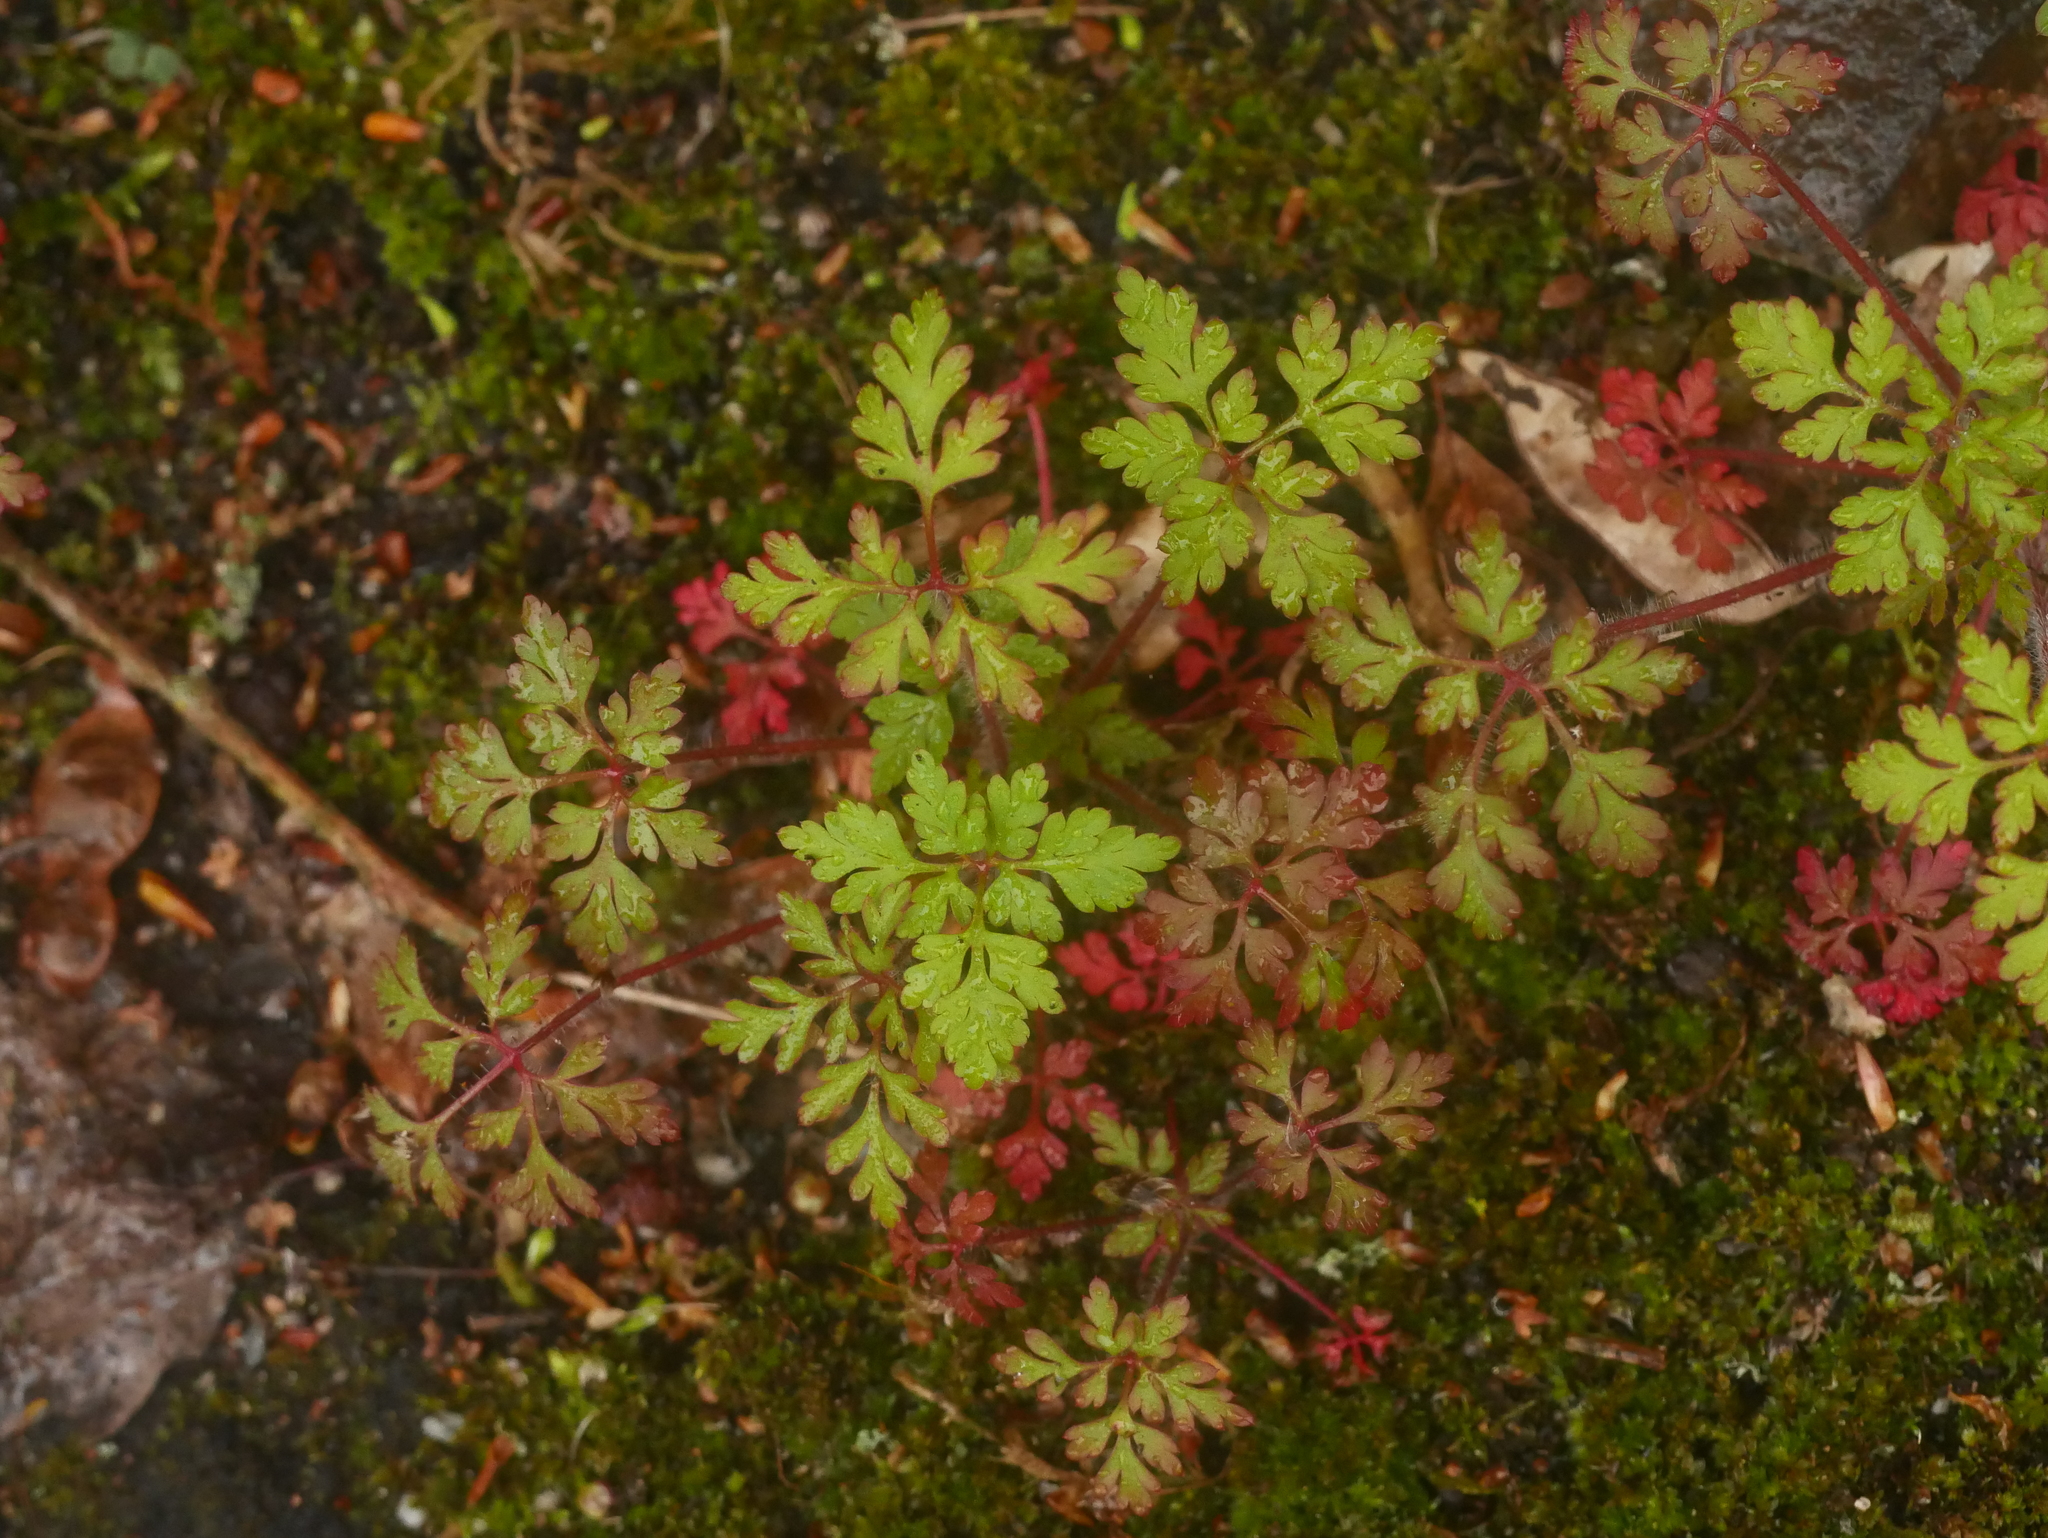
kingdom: Plantae
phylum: Tracheophyta
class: Magnoliopsida
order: Geraniales
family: Geraniaceae
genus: Geranium
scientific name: Geranium robertianum
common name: Herb-robert
